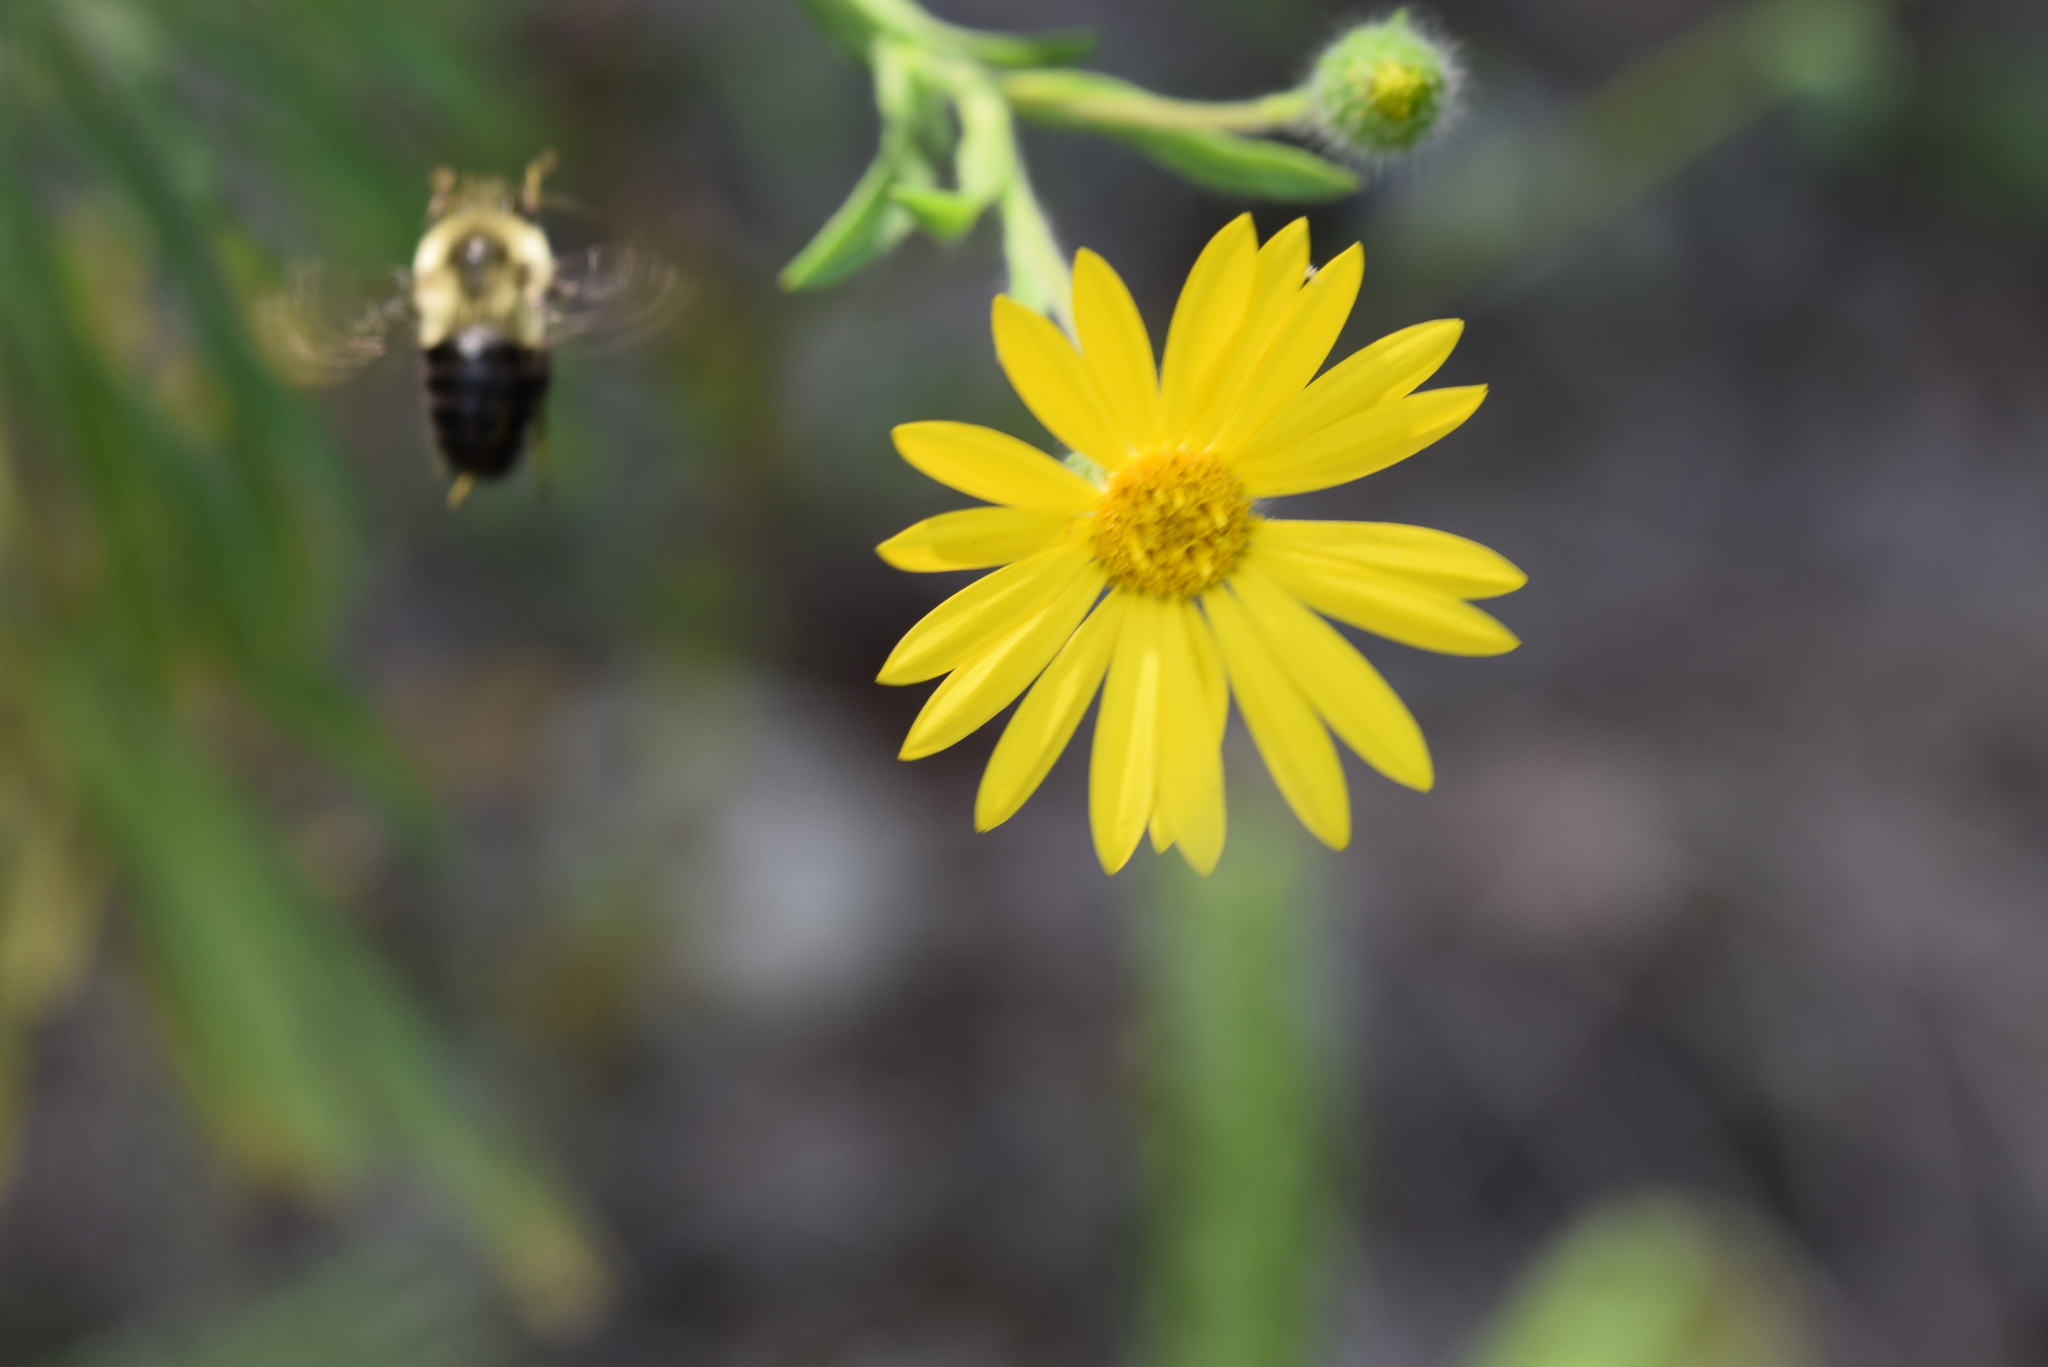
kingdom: Animalia
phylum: Arthropoda
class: Insecta
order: Hymenoptera
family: Apidae
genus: Bombus
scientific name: Bombus impatiens
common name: Common eastern bumble bee
